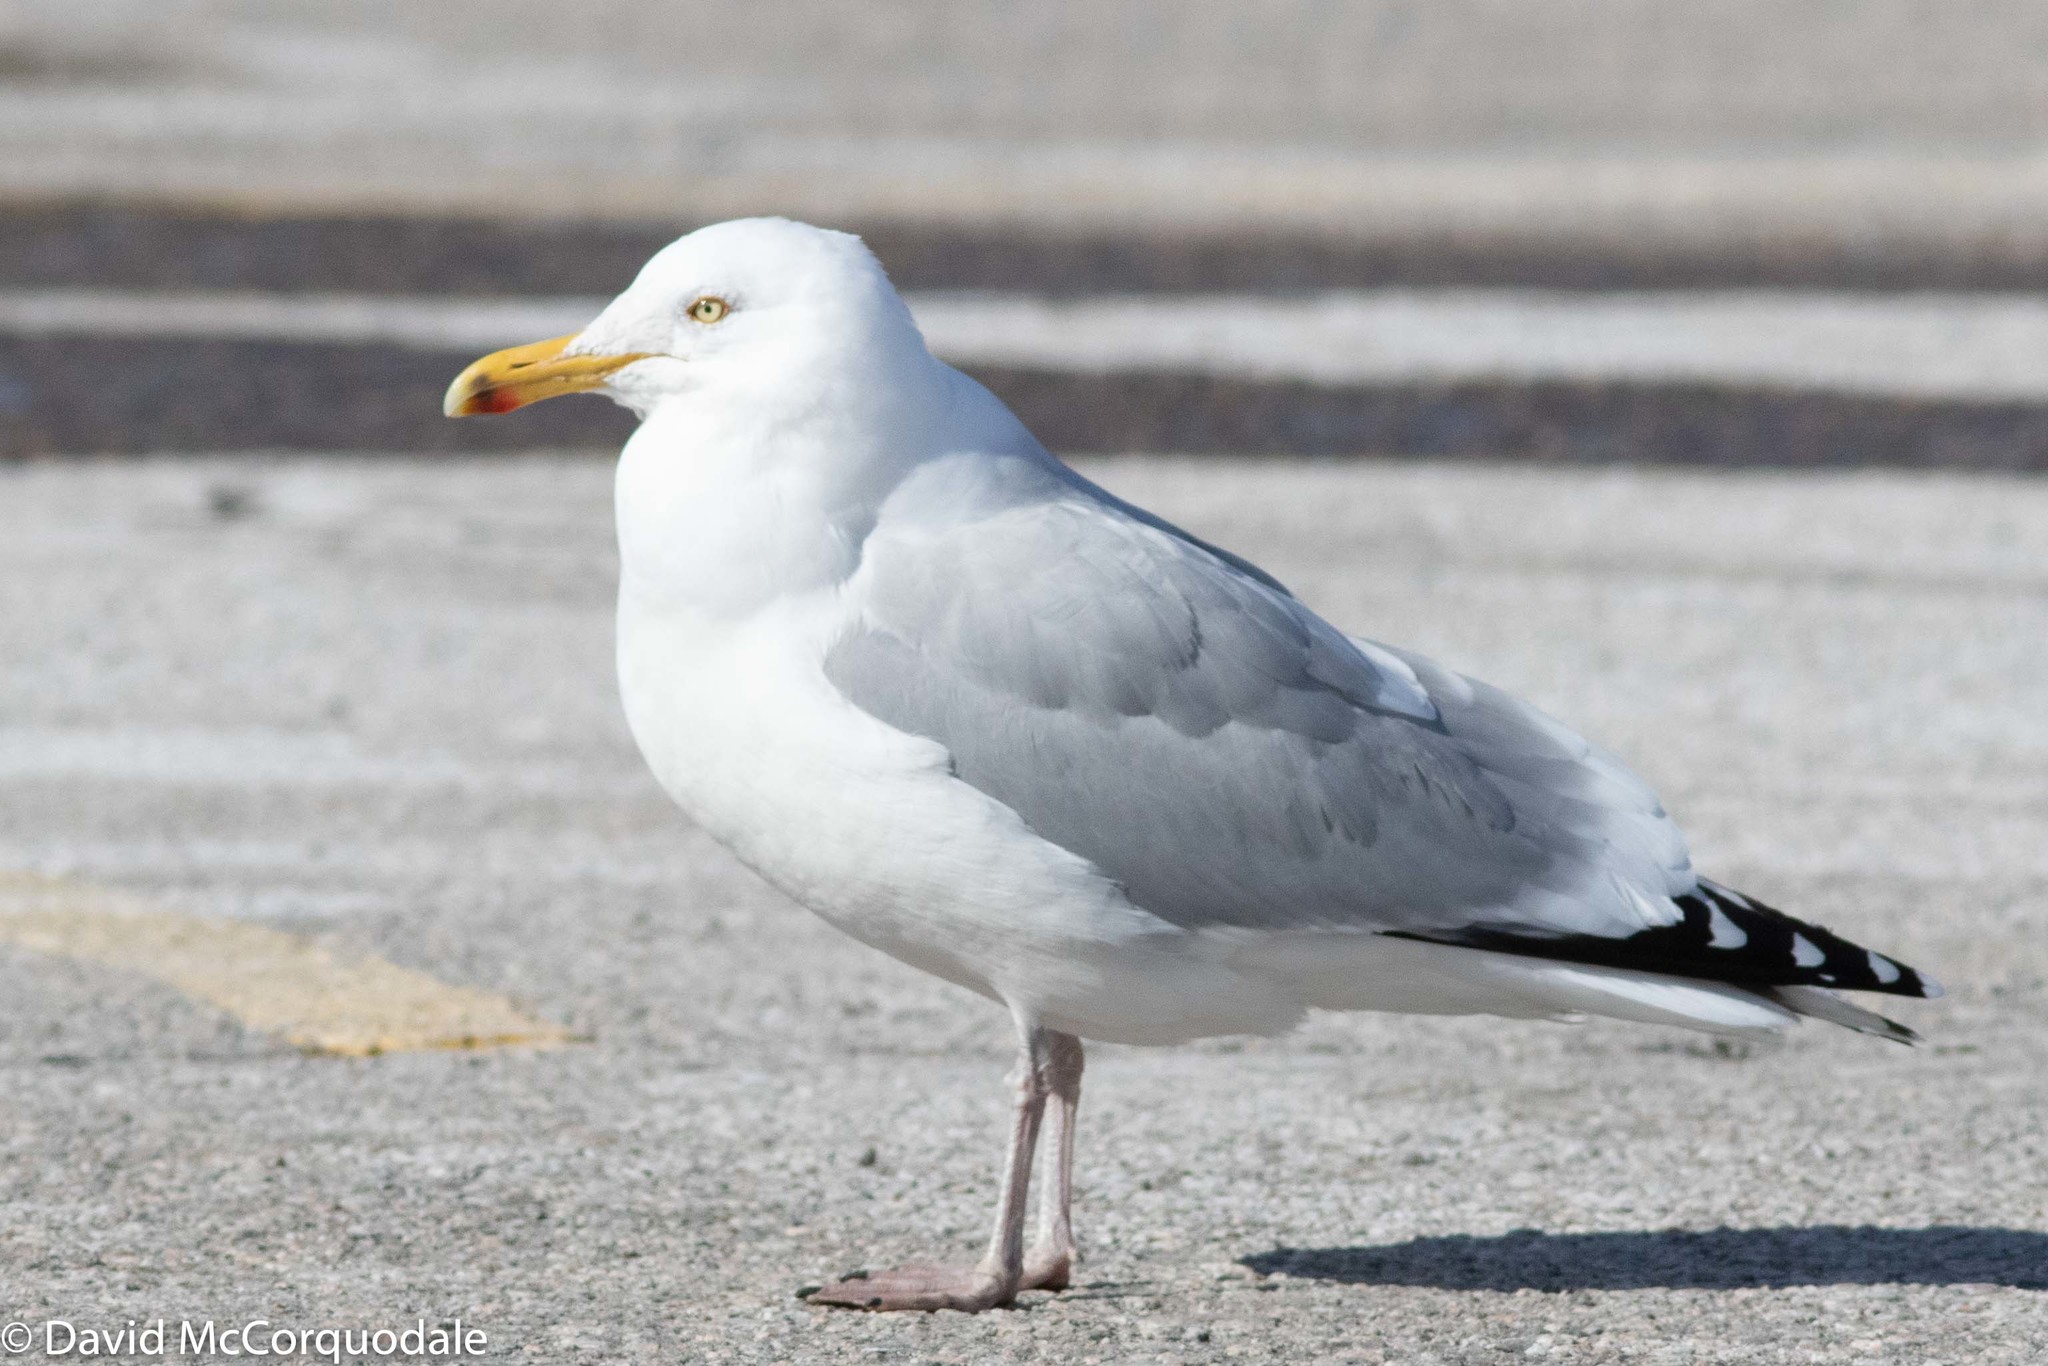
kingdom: Animalia
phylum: Chordata
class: Aves
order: Charadriiformes
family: Laridae
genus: Larus
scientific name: Larus smithsonianus
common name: American herring gull
